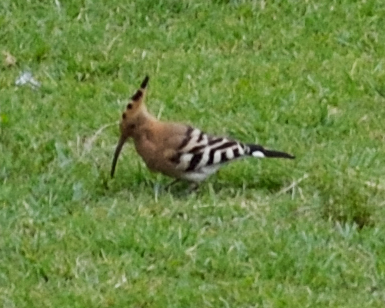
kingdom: Animalia
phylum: Chordata
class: Aves
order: Bucerotiformes
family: Upupidae
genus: Upupa
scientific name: Upupa epops
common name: Eurasian hoopoe
